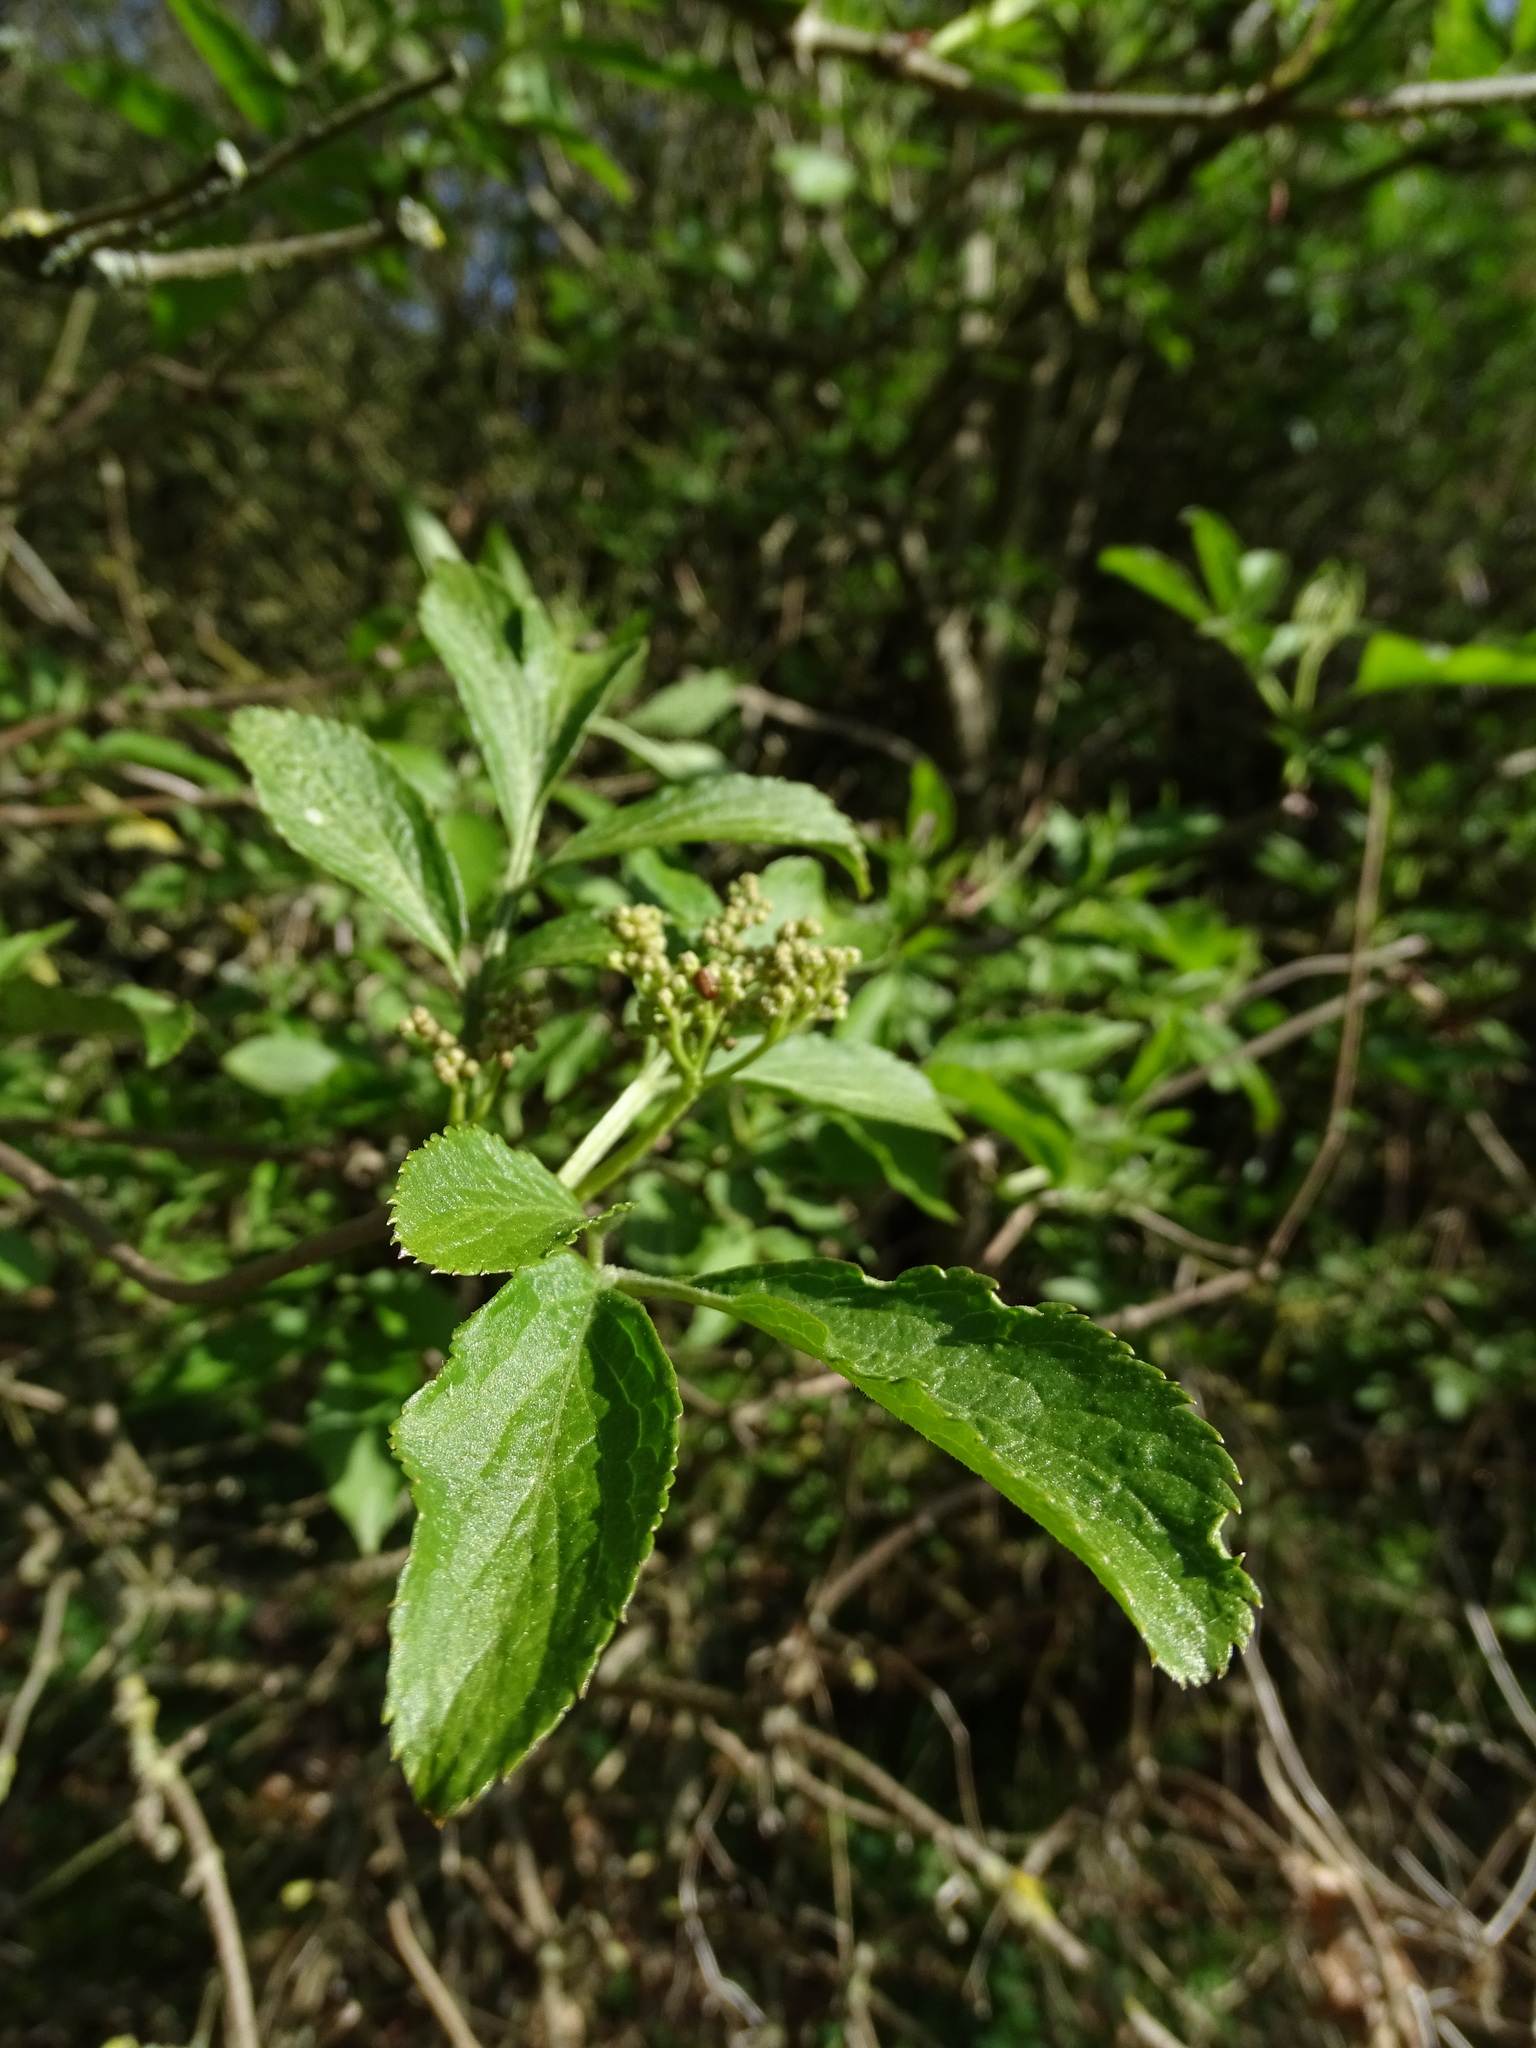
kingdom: Plantae
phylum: Tracheophyta
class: Magnoliopsida
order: Dipsacales
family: Viburnaceae
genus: Sambucus
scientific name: Sambucus nigra
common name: Elder
